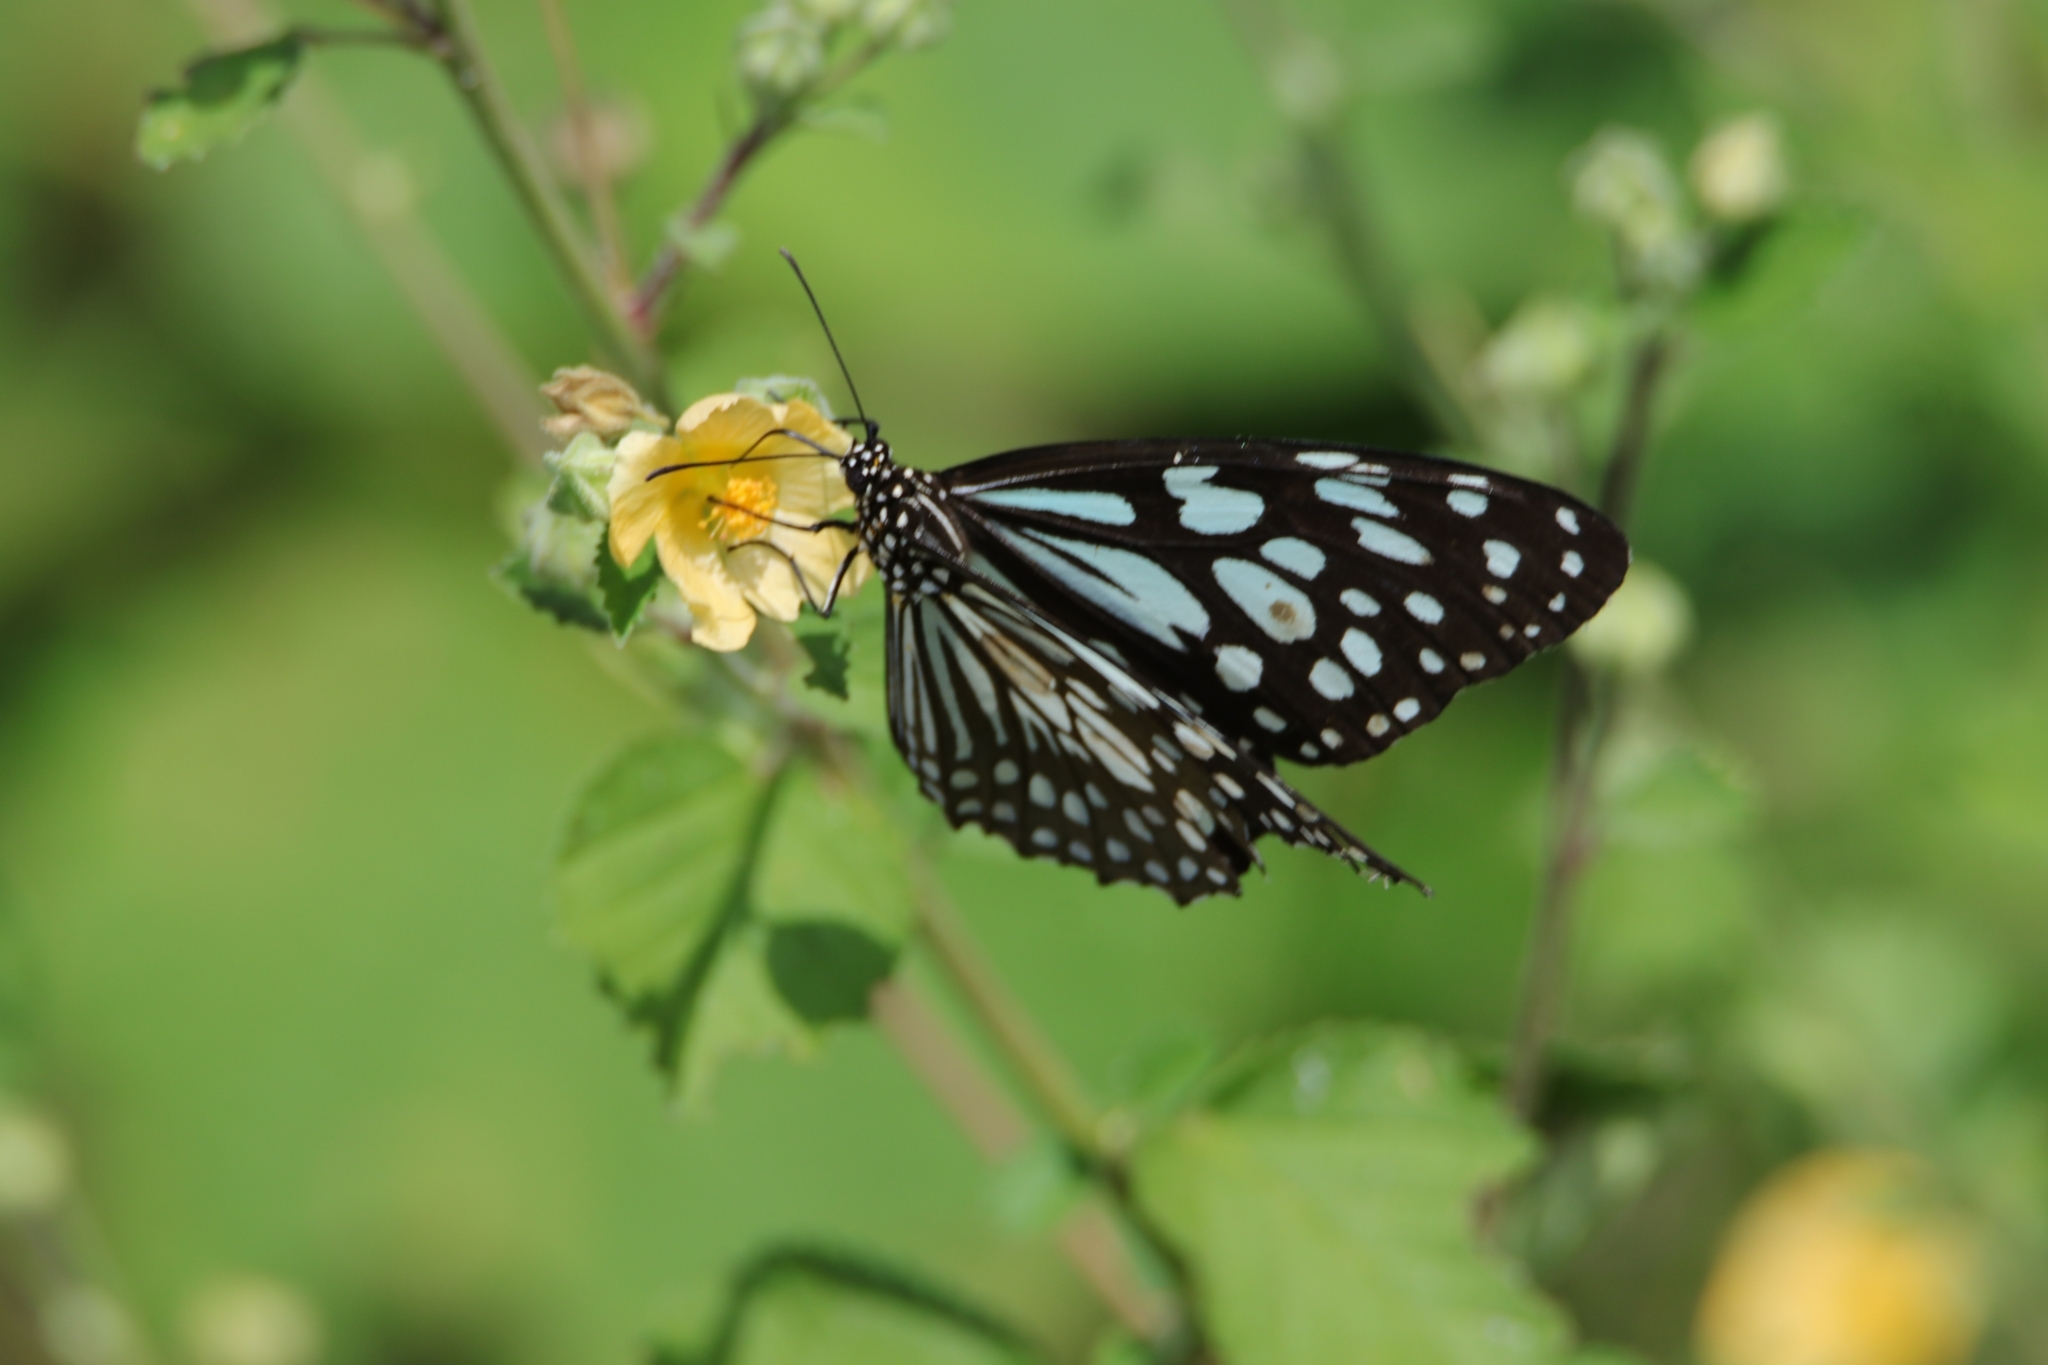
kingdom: Animalia
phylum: Arthropoda
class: Insecta
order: Lepidoptera
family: Nymphalidae
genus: Tirumala
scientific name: Tirumala limniace
